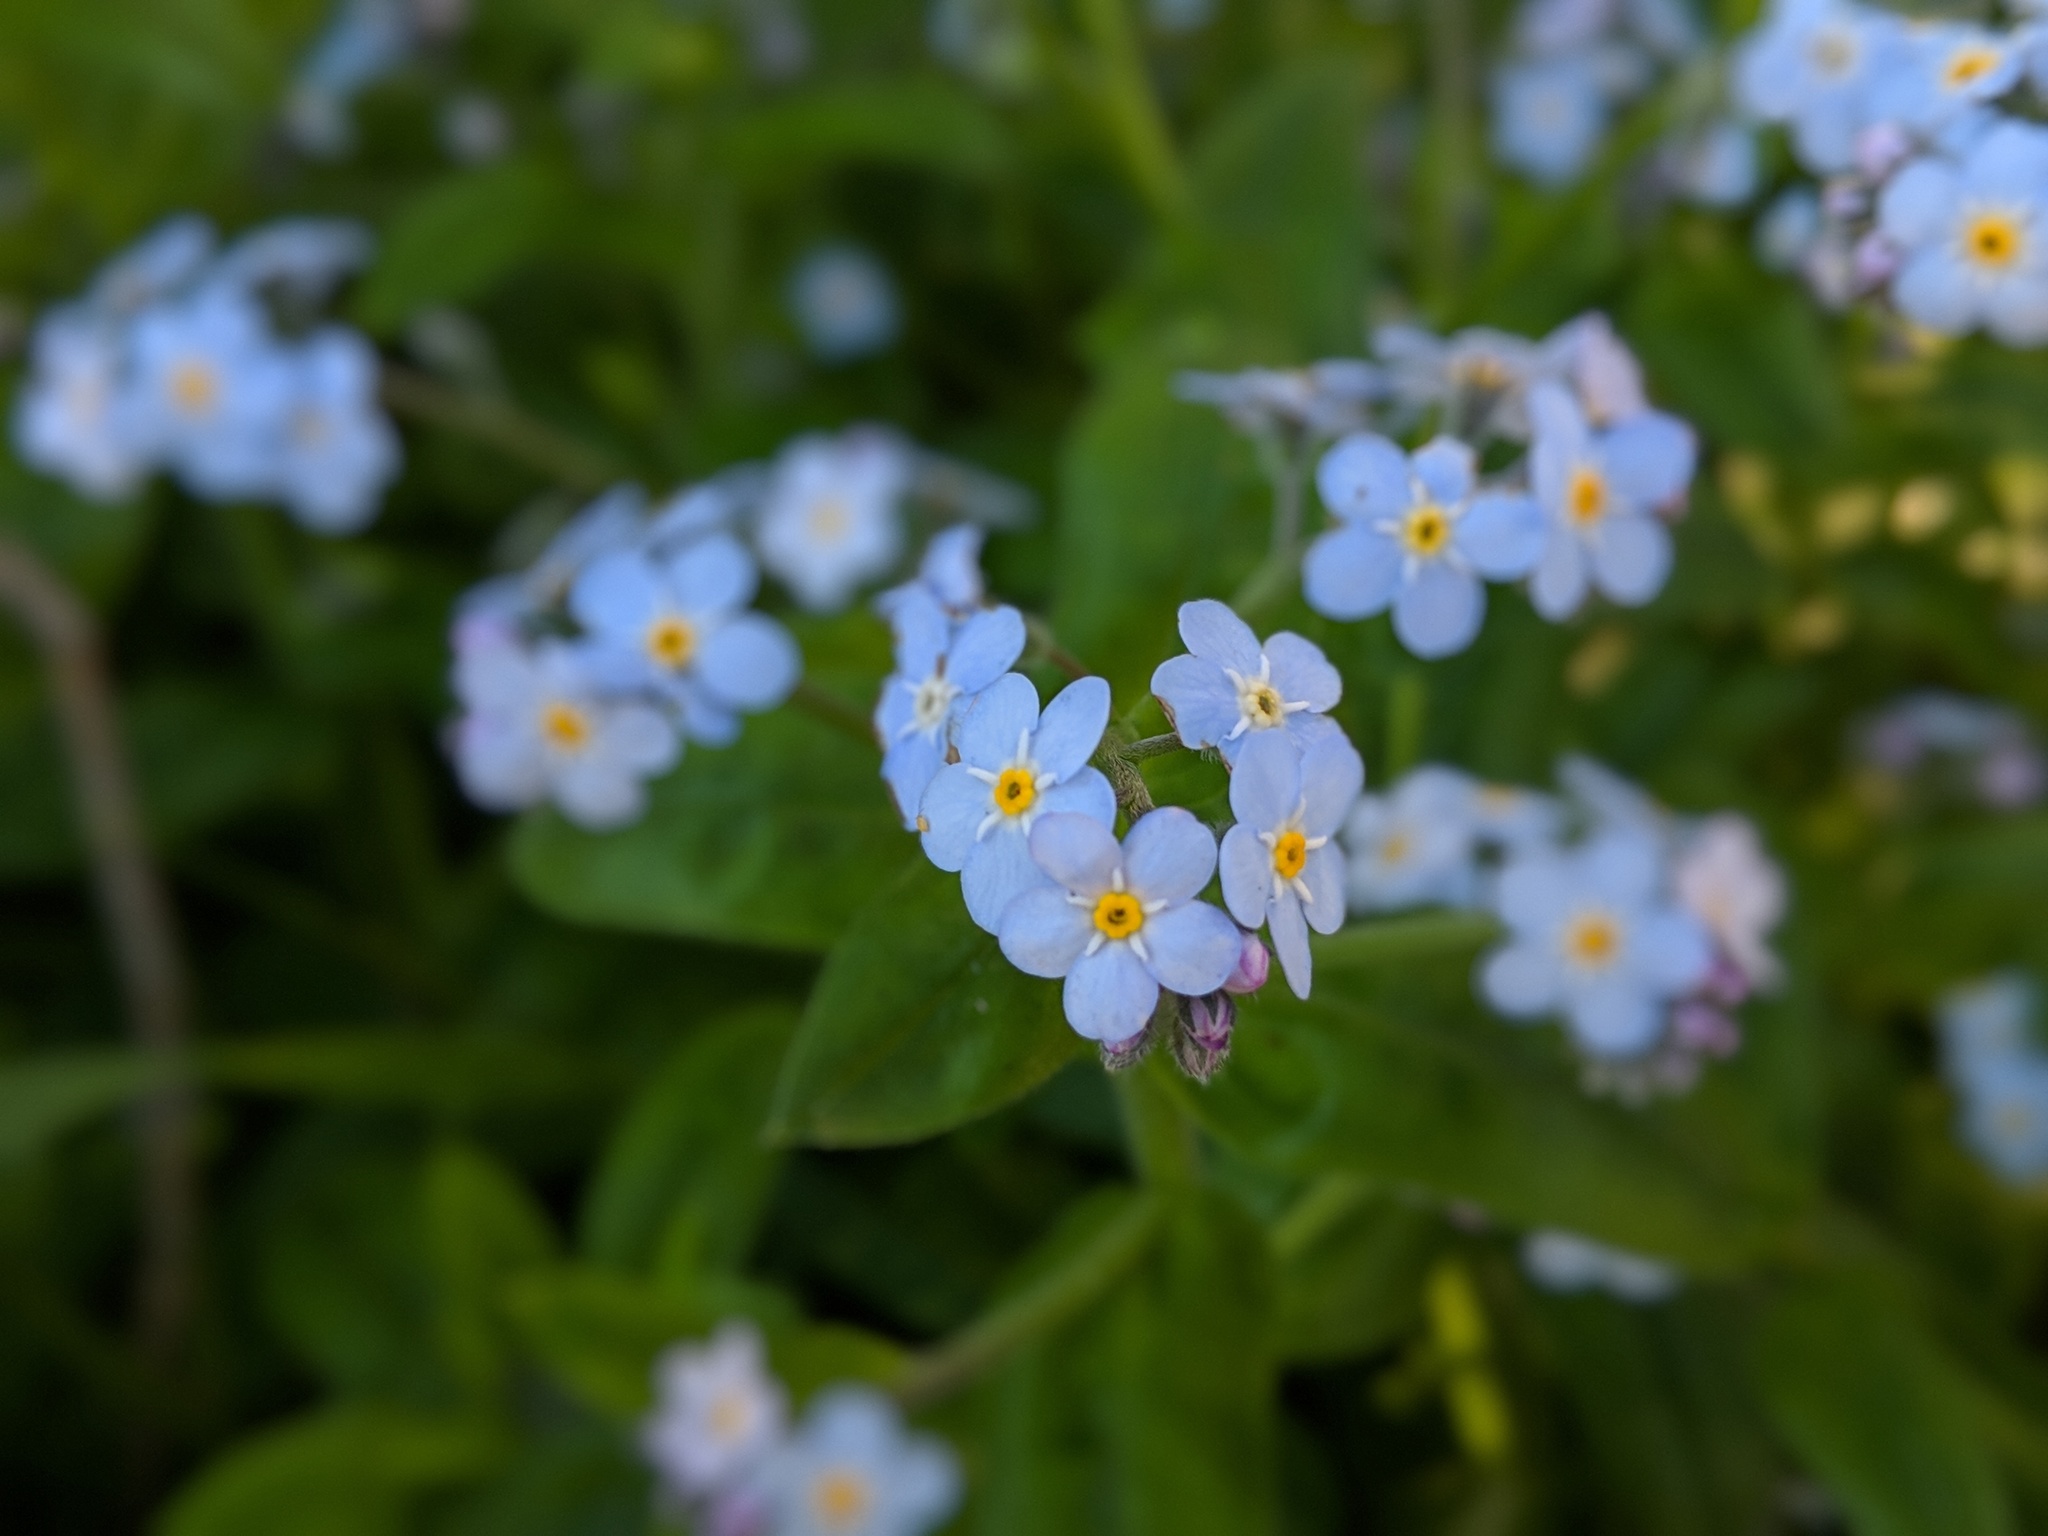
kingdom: Plantae
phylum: Tracheophyta
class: Magnoliopsida
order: Boraginales
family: Boraginaceae
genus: Myosotis
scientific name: Myosotis latifolia
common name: Broadleaf forget-me-not
